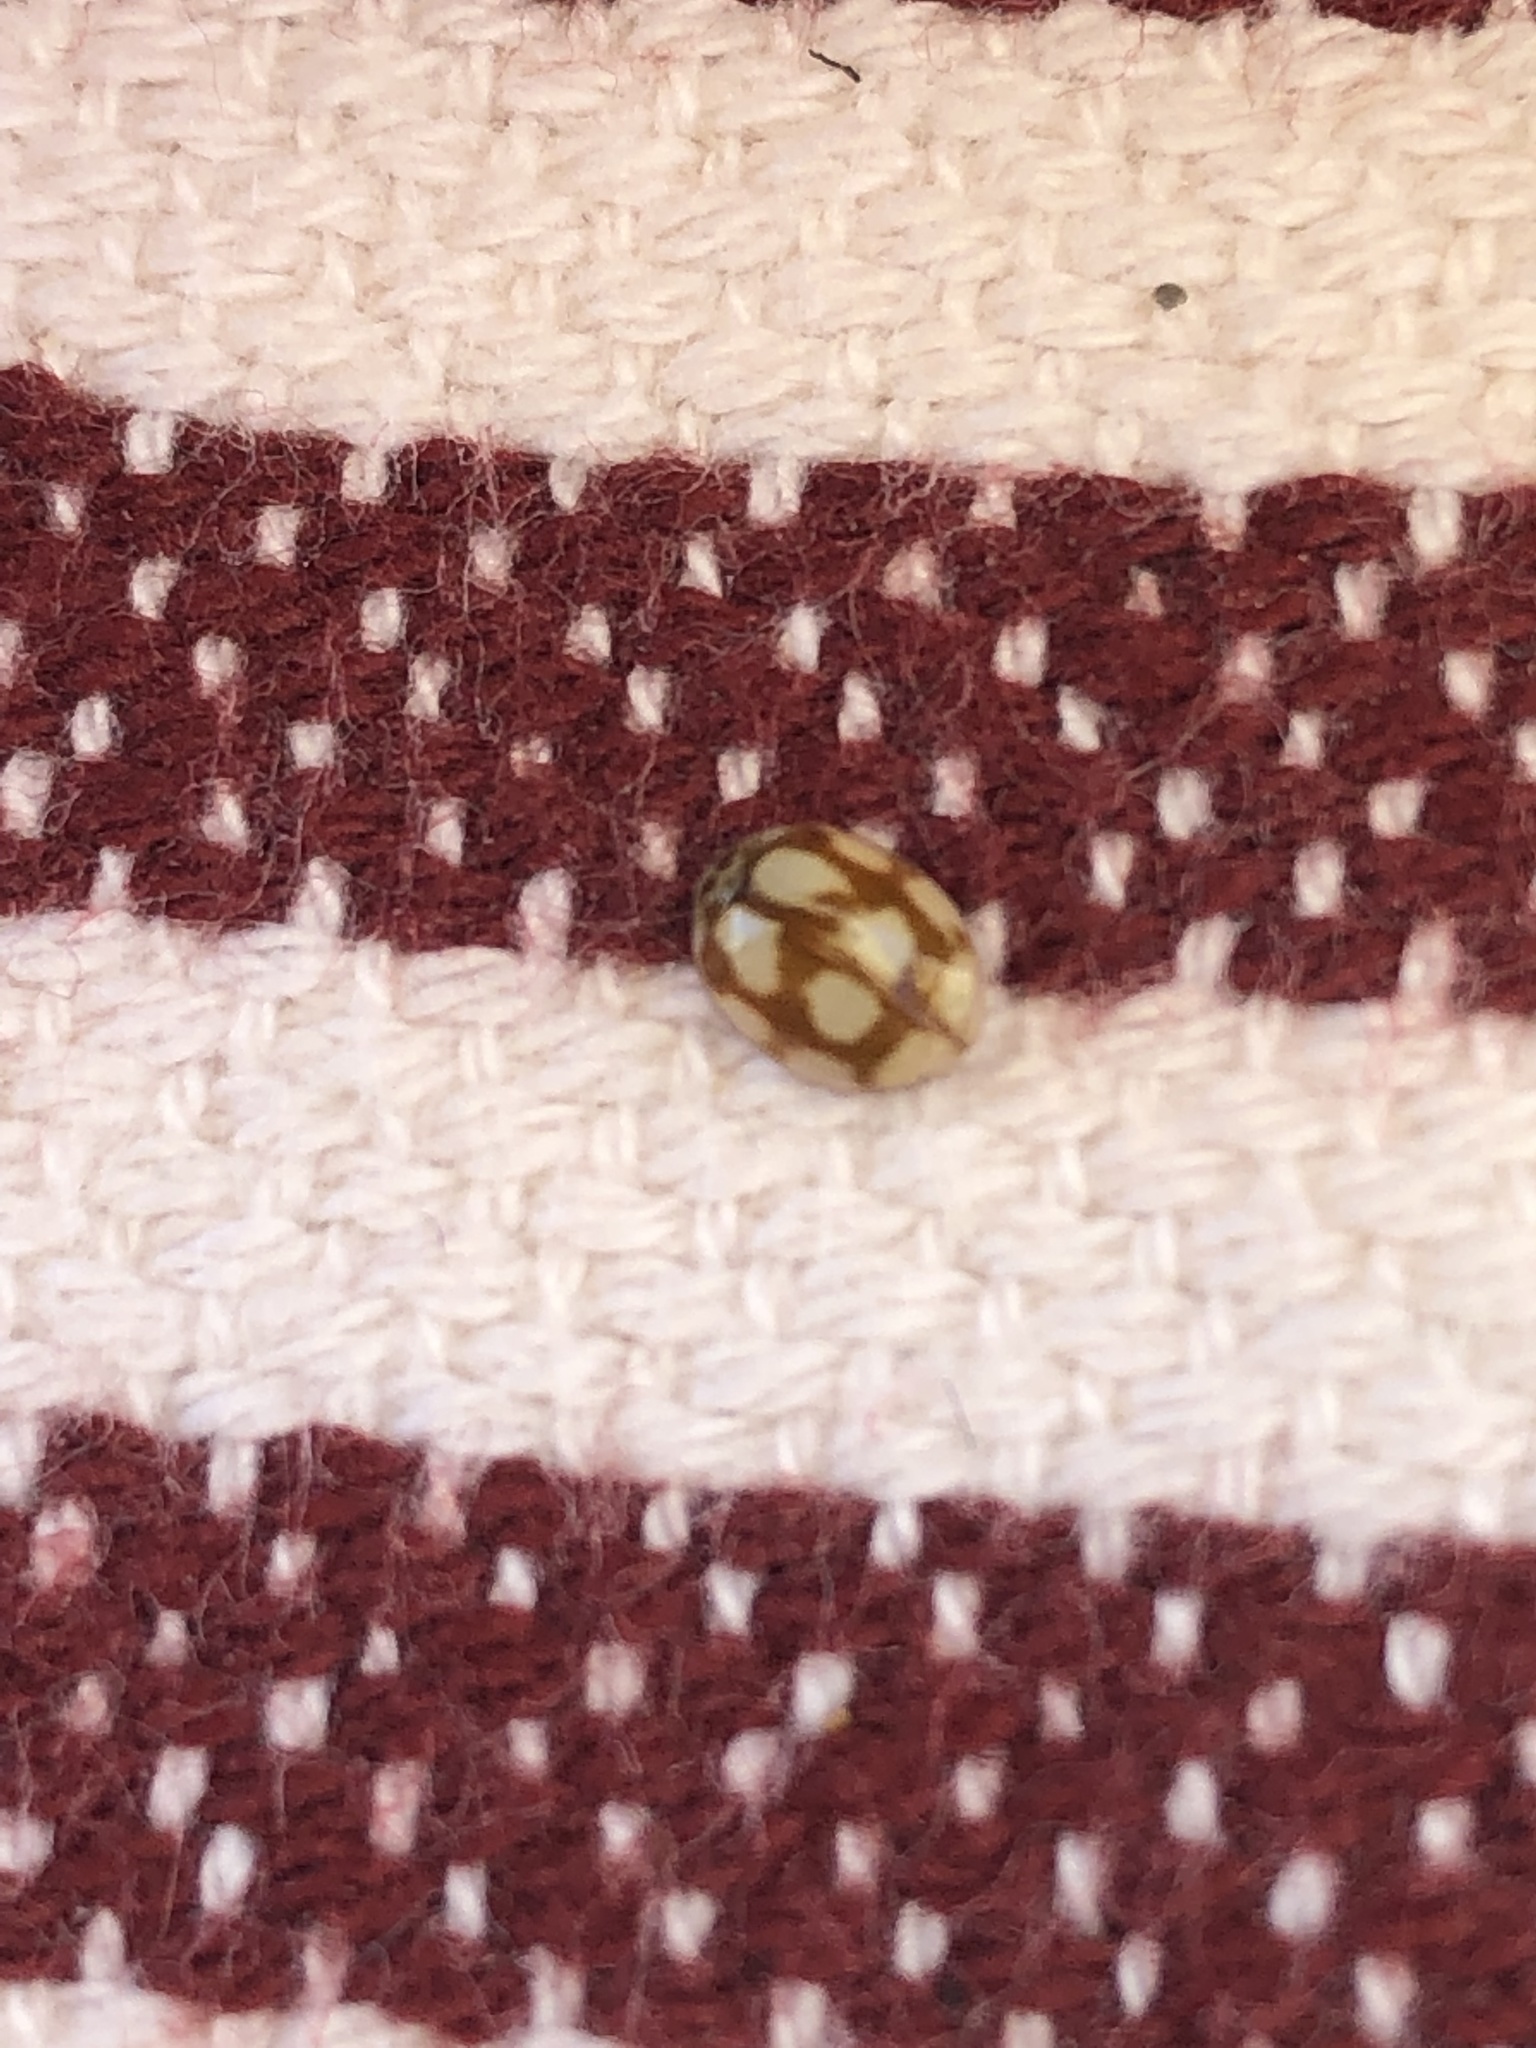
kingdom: Animalia
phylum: Arthropoda
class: Insecta
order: Coleoptera
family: Coccinellidae
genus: Adalia
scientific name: Adalia decempunctata
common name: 10-spot ladybird
